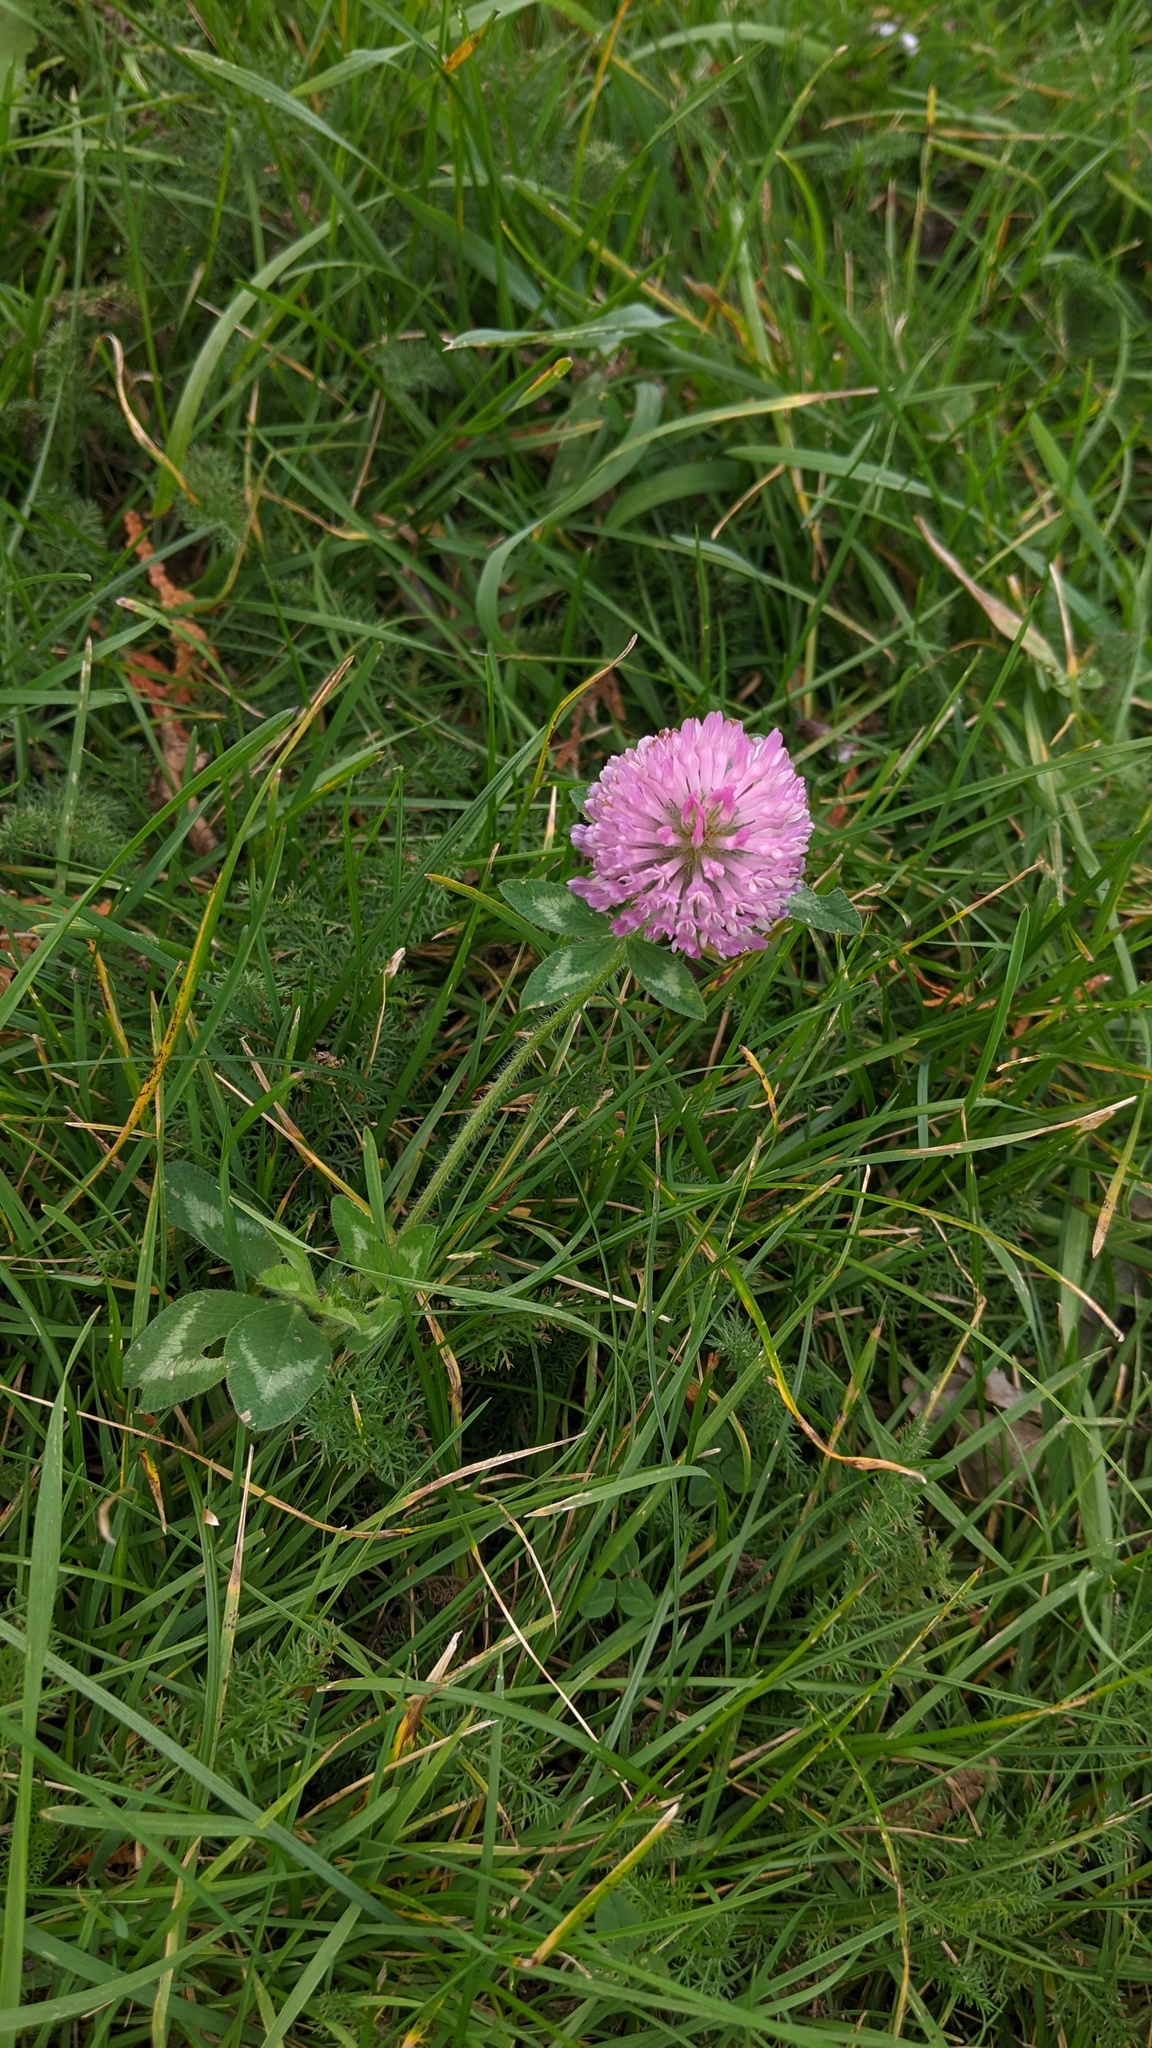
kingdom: Plantae
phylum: Tracheophyta
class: Magnoliopsida
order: Fabales
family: Fabaceae
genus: Trifolium
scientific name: Trifolium pratense
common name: Red clover
